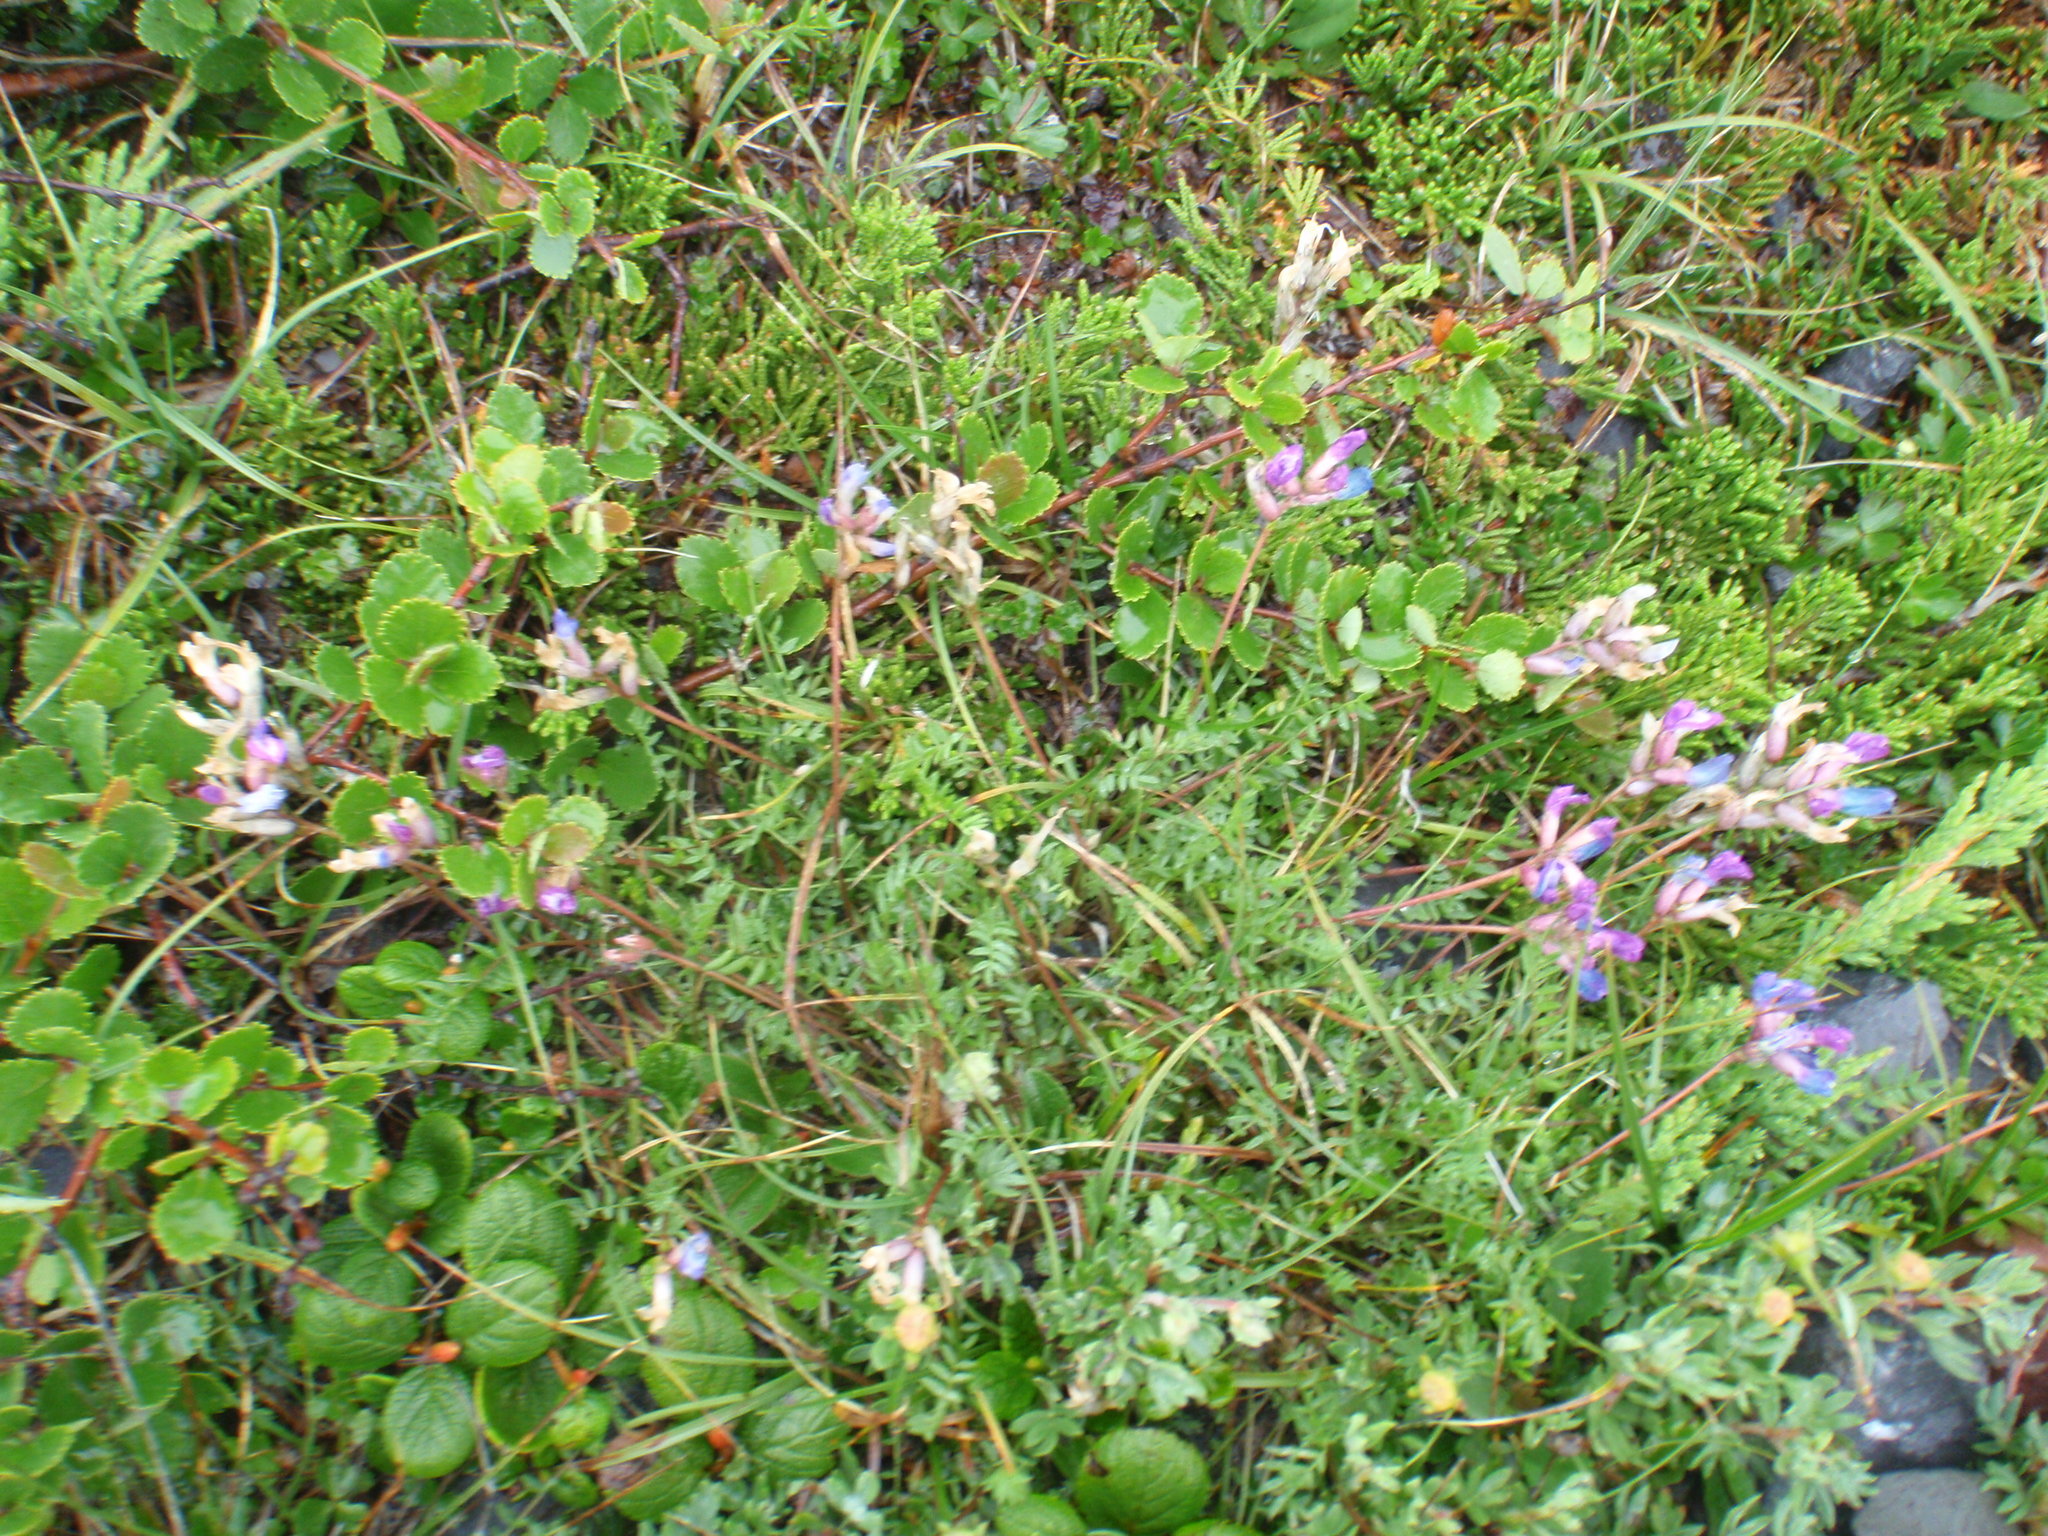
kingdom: Plantae
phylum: Tracheophyta
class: Magnoliopsida
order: Fagales
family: Betulaceae
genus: Betula
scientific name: Betula pumila
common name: Bog birch
